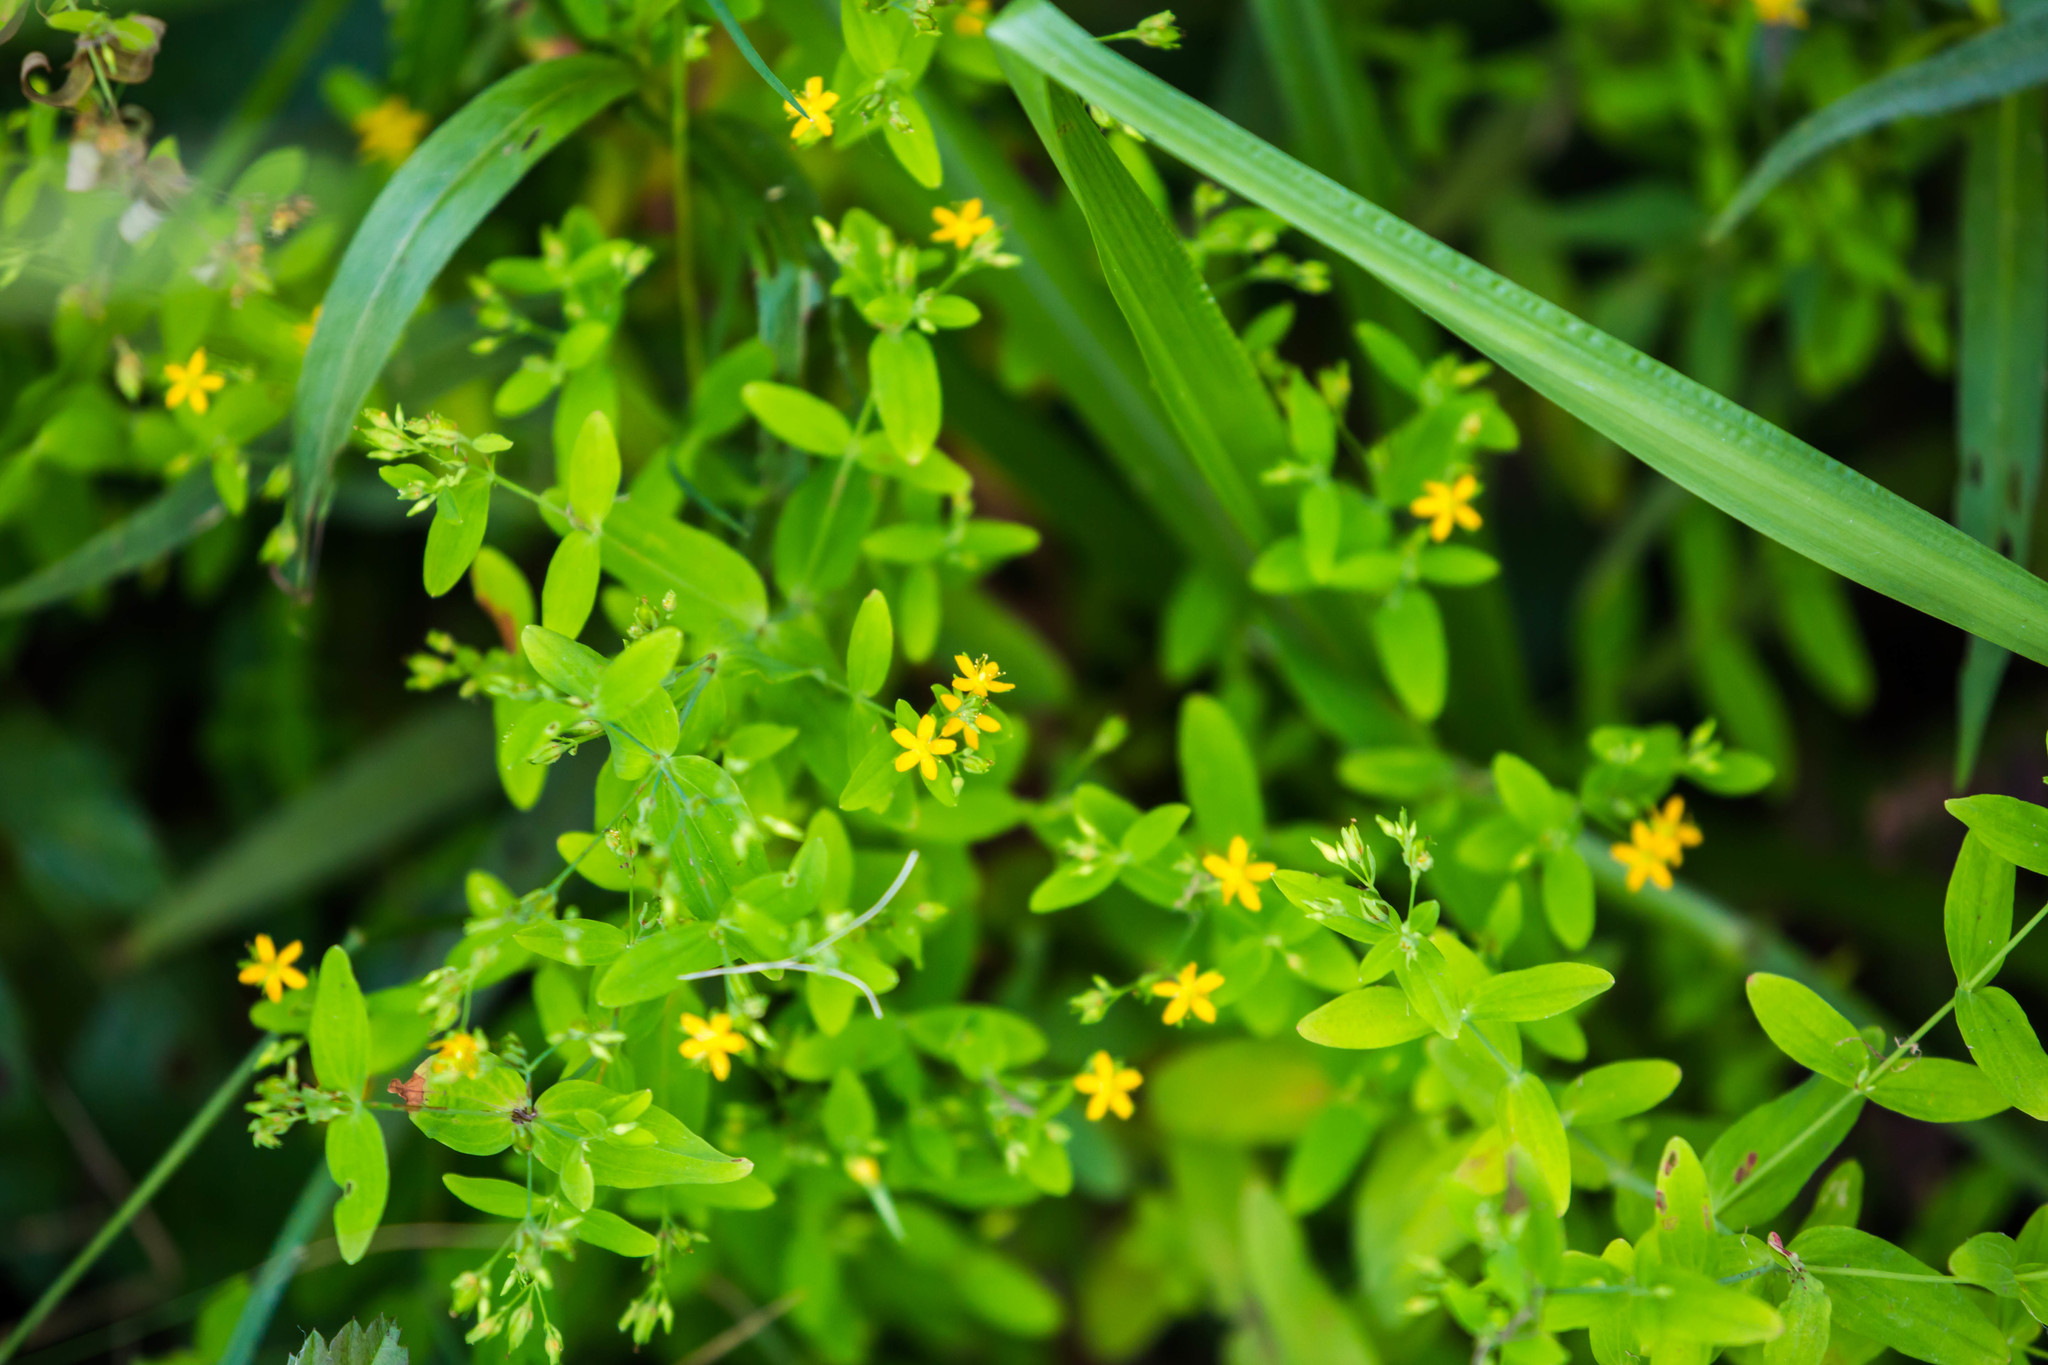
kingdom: Plantae
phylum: Tracheophyta
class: Magnoliopsida
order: Malpighiales
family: Hypericaceae
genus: Hypericum
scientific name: Hypericum mutilum
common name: Dwarf st. john's-wort
